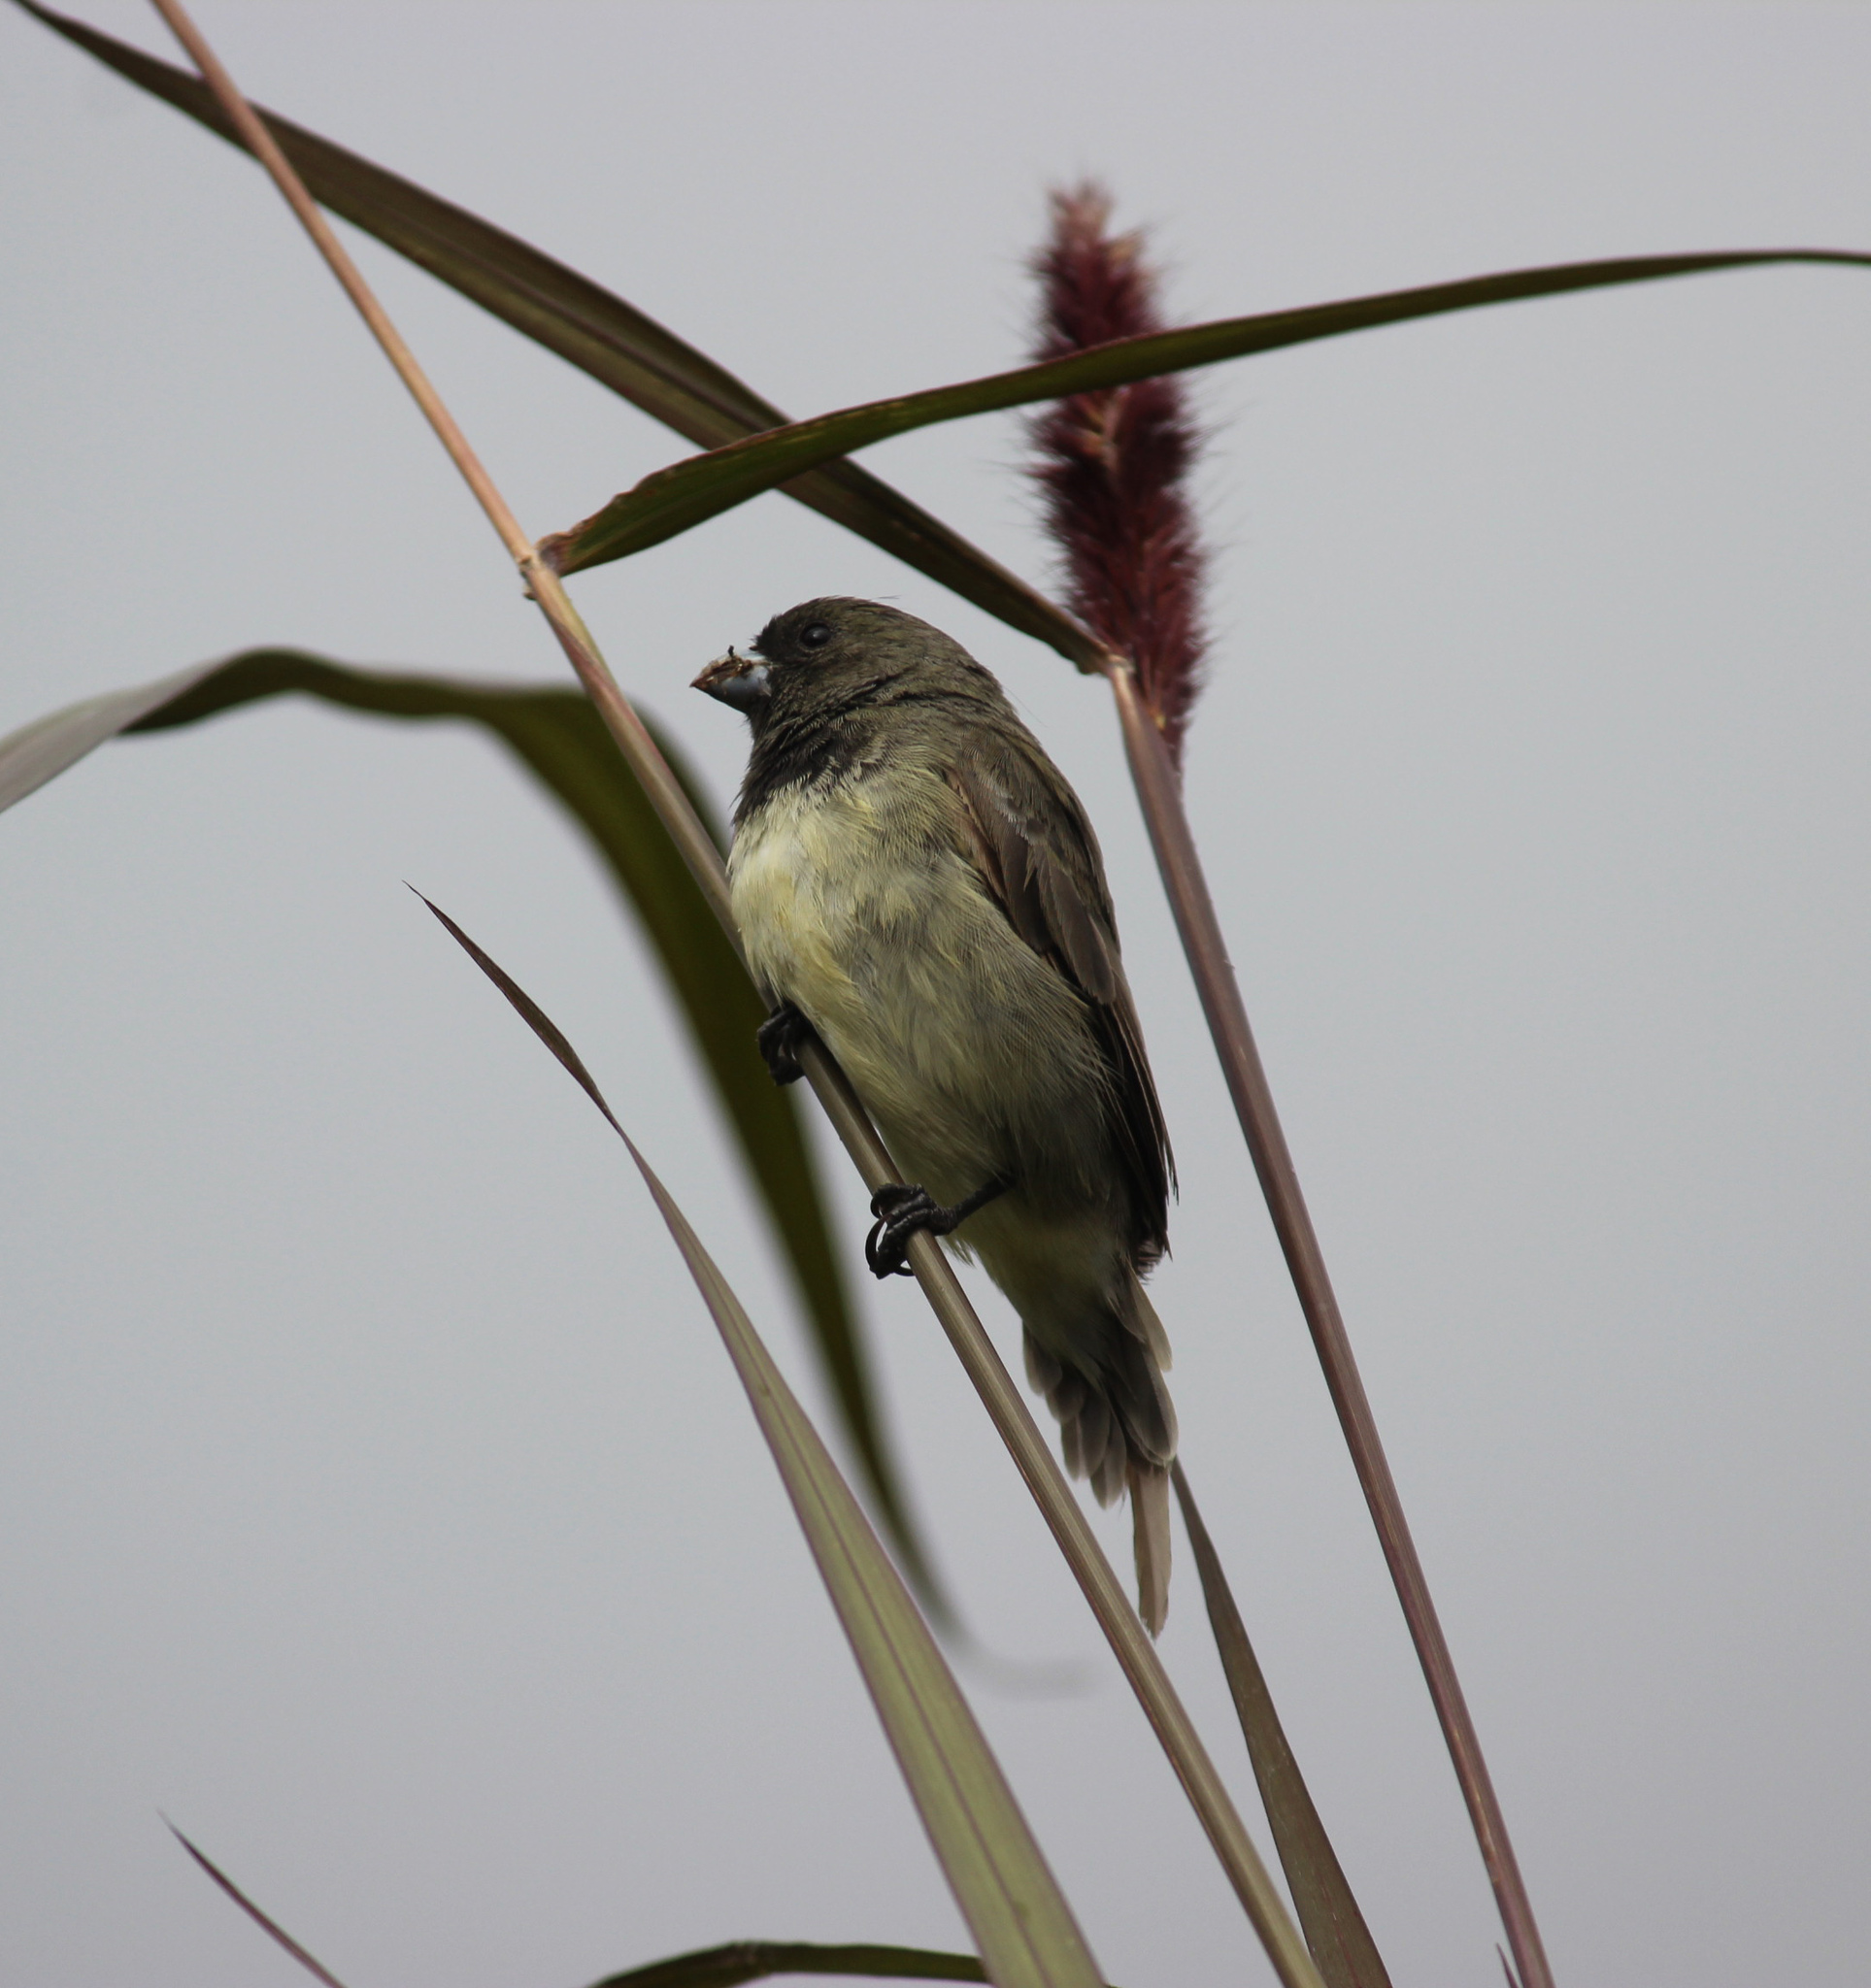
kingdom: Animalia
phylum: Chordata
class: Aves
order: Passeriformes
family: Thraupidae
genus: Sporophila
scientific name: Sporophila nigricollis
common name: Yellow-bellied seedeater
